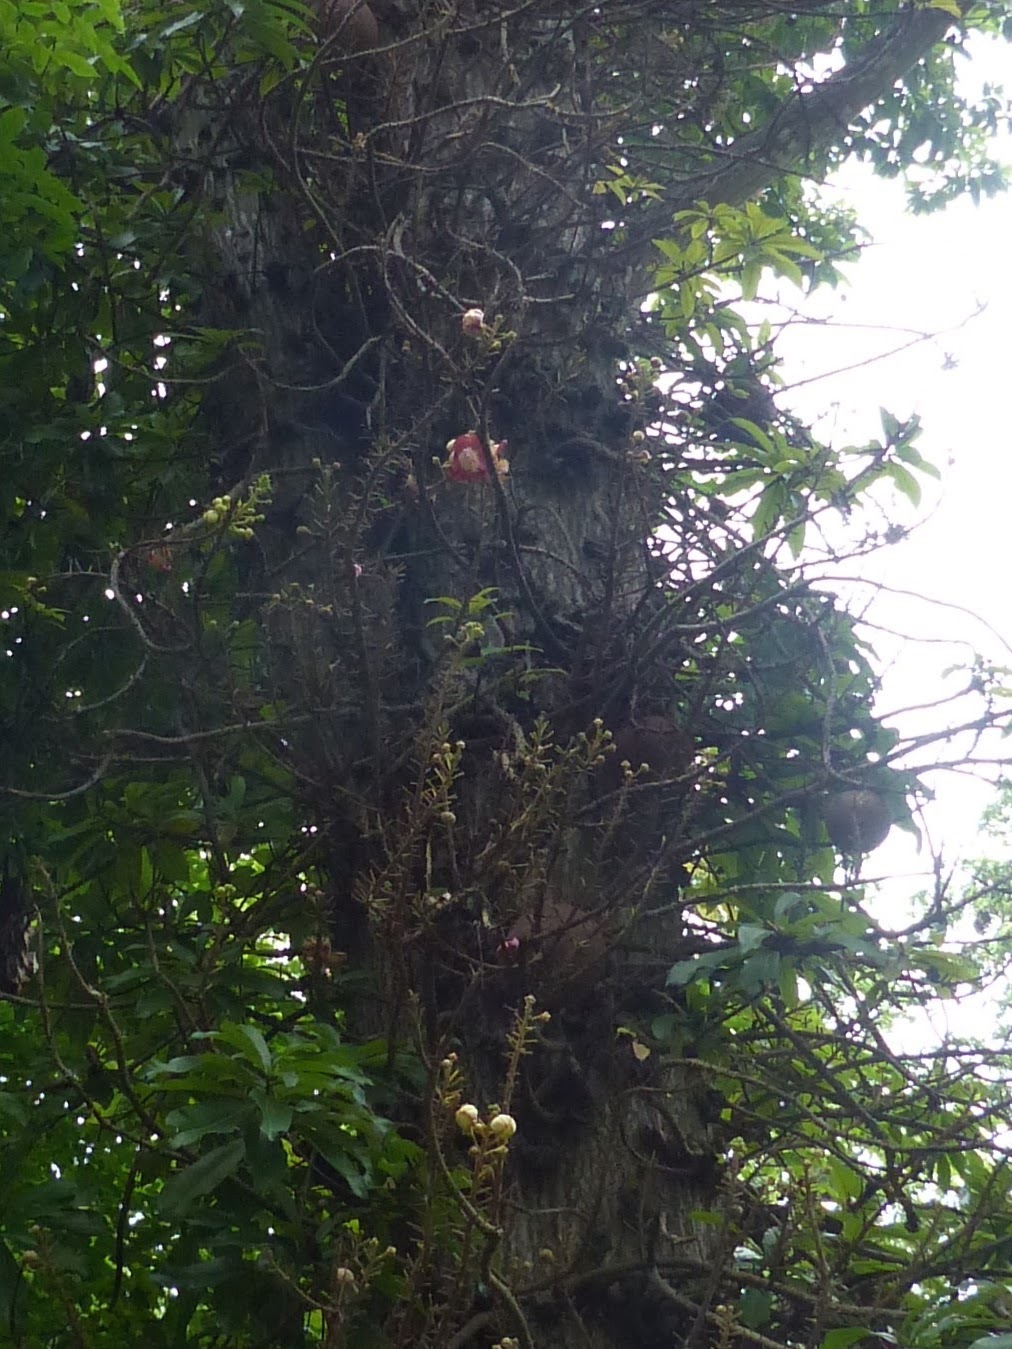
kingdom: Plantae
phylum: Tracheophyta
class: Magnoliopsida
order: Ericales
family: Lecythidaceae
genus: Couroupita
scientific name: Couroupita guianensis
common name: Cannonball tree
